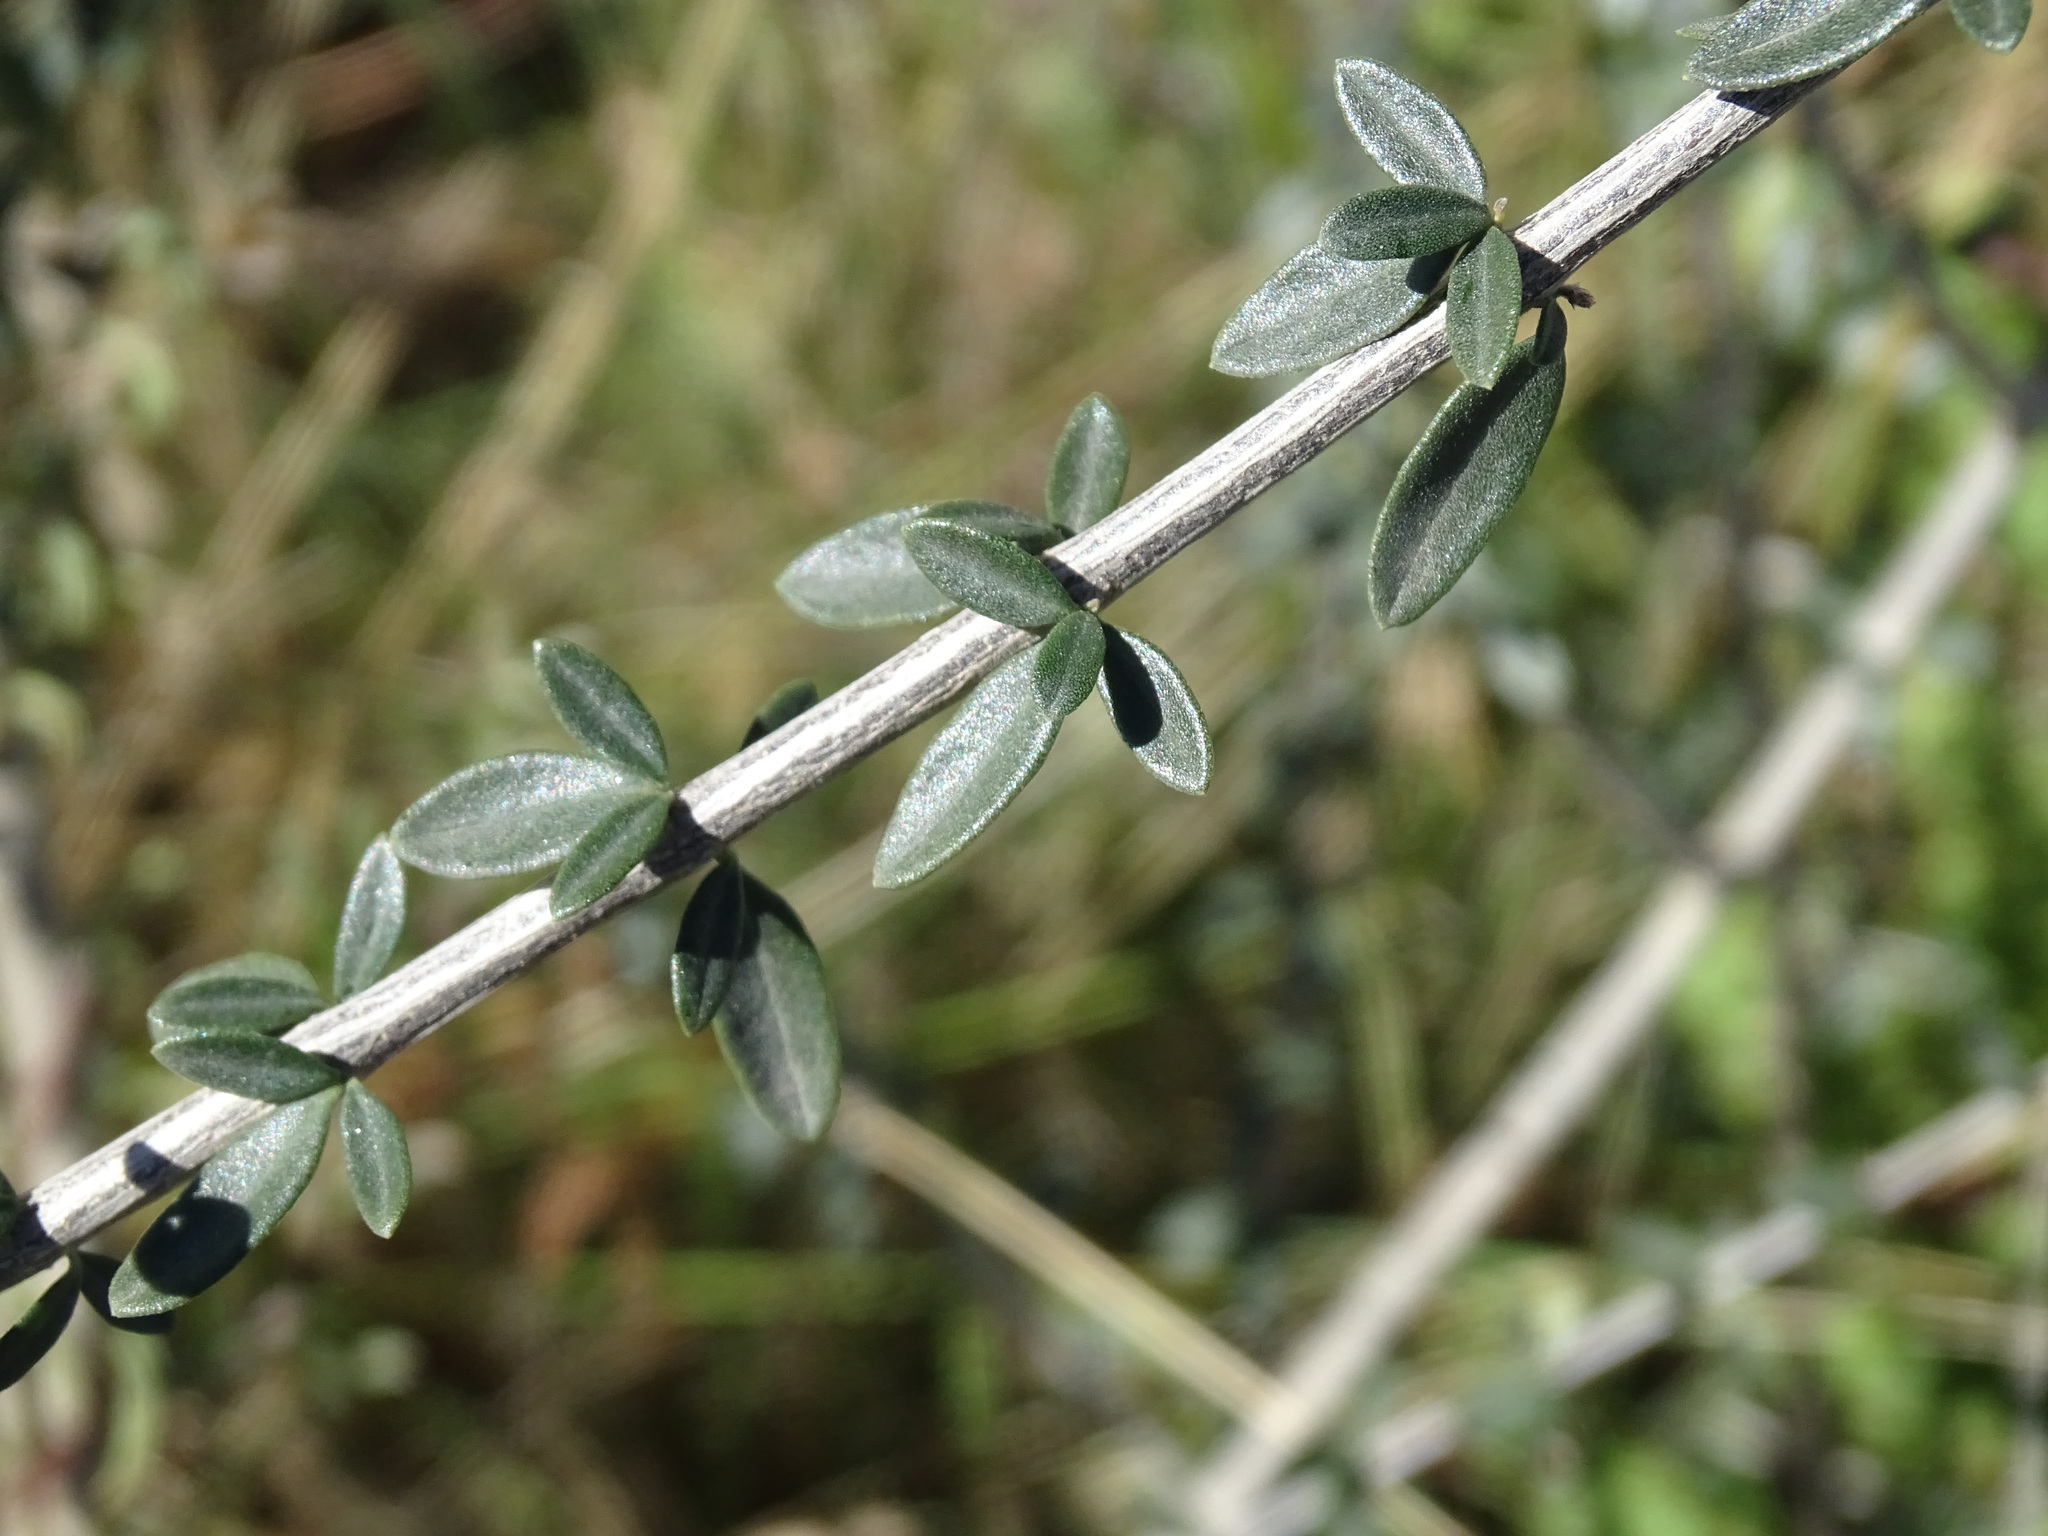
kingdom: Plantae
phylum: Tracheophyta
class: Magnoliopsida
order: Lamiales
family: Verbenaceae
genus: Aloysia
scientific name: Aloysia gratissima
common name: Common bee-brush
